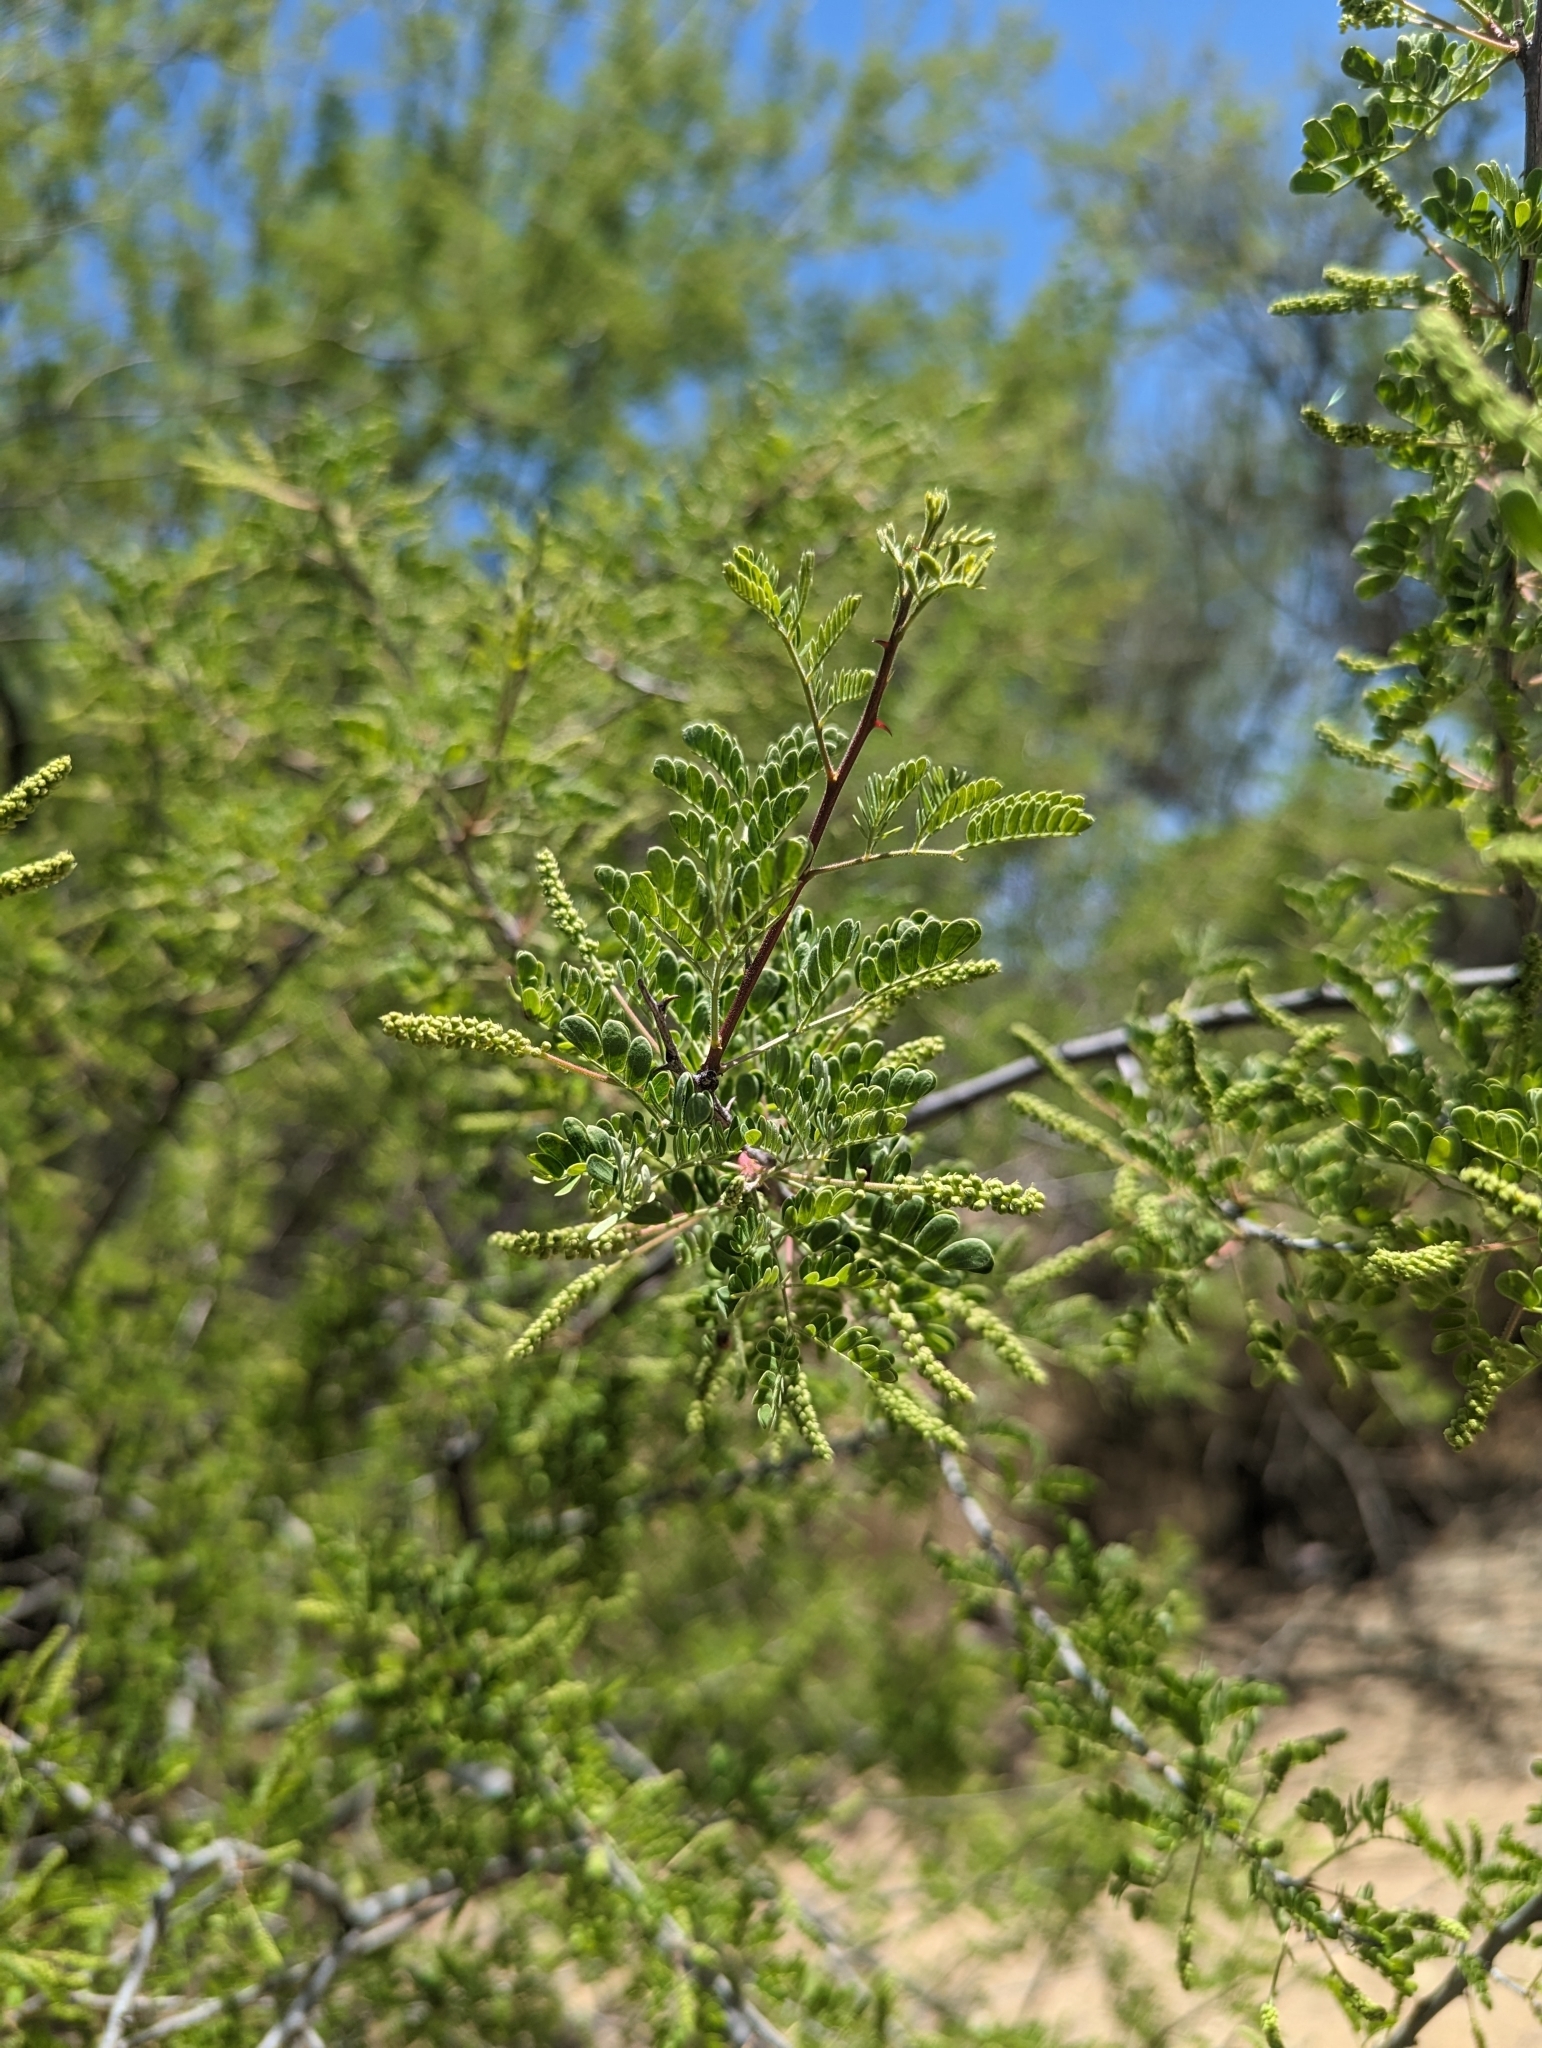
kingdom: Plantae
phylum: Tracheophyta
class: Magnoliopsida
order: Fabales
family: Fabaceae
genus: Senegalia
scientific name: Senegalia greggii
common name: Texas-mimosa
